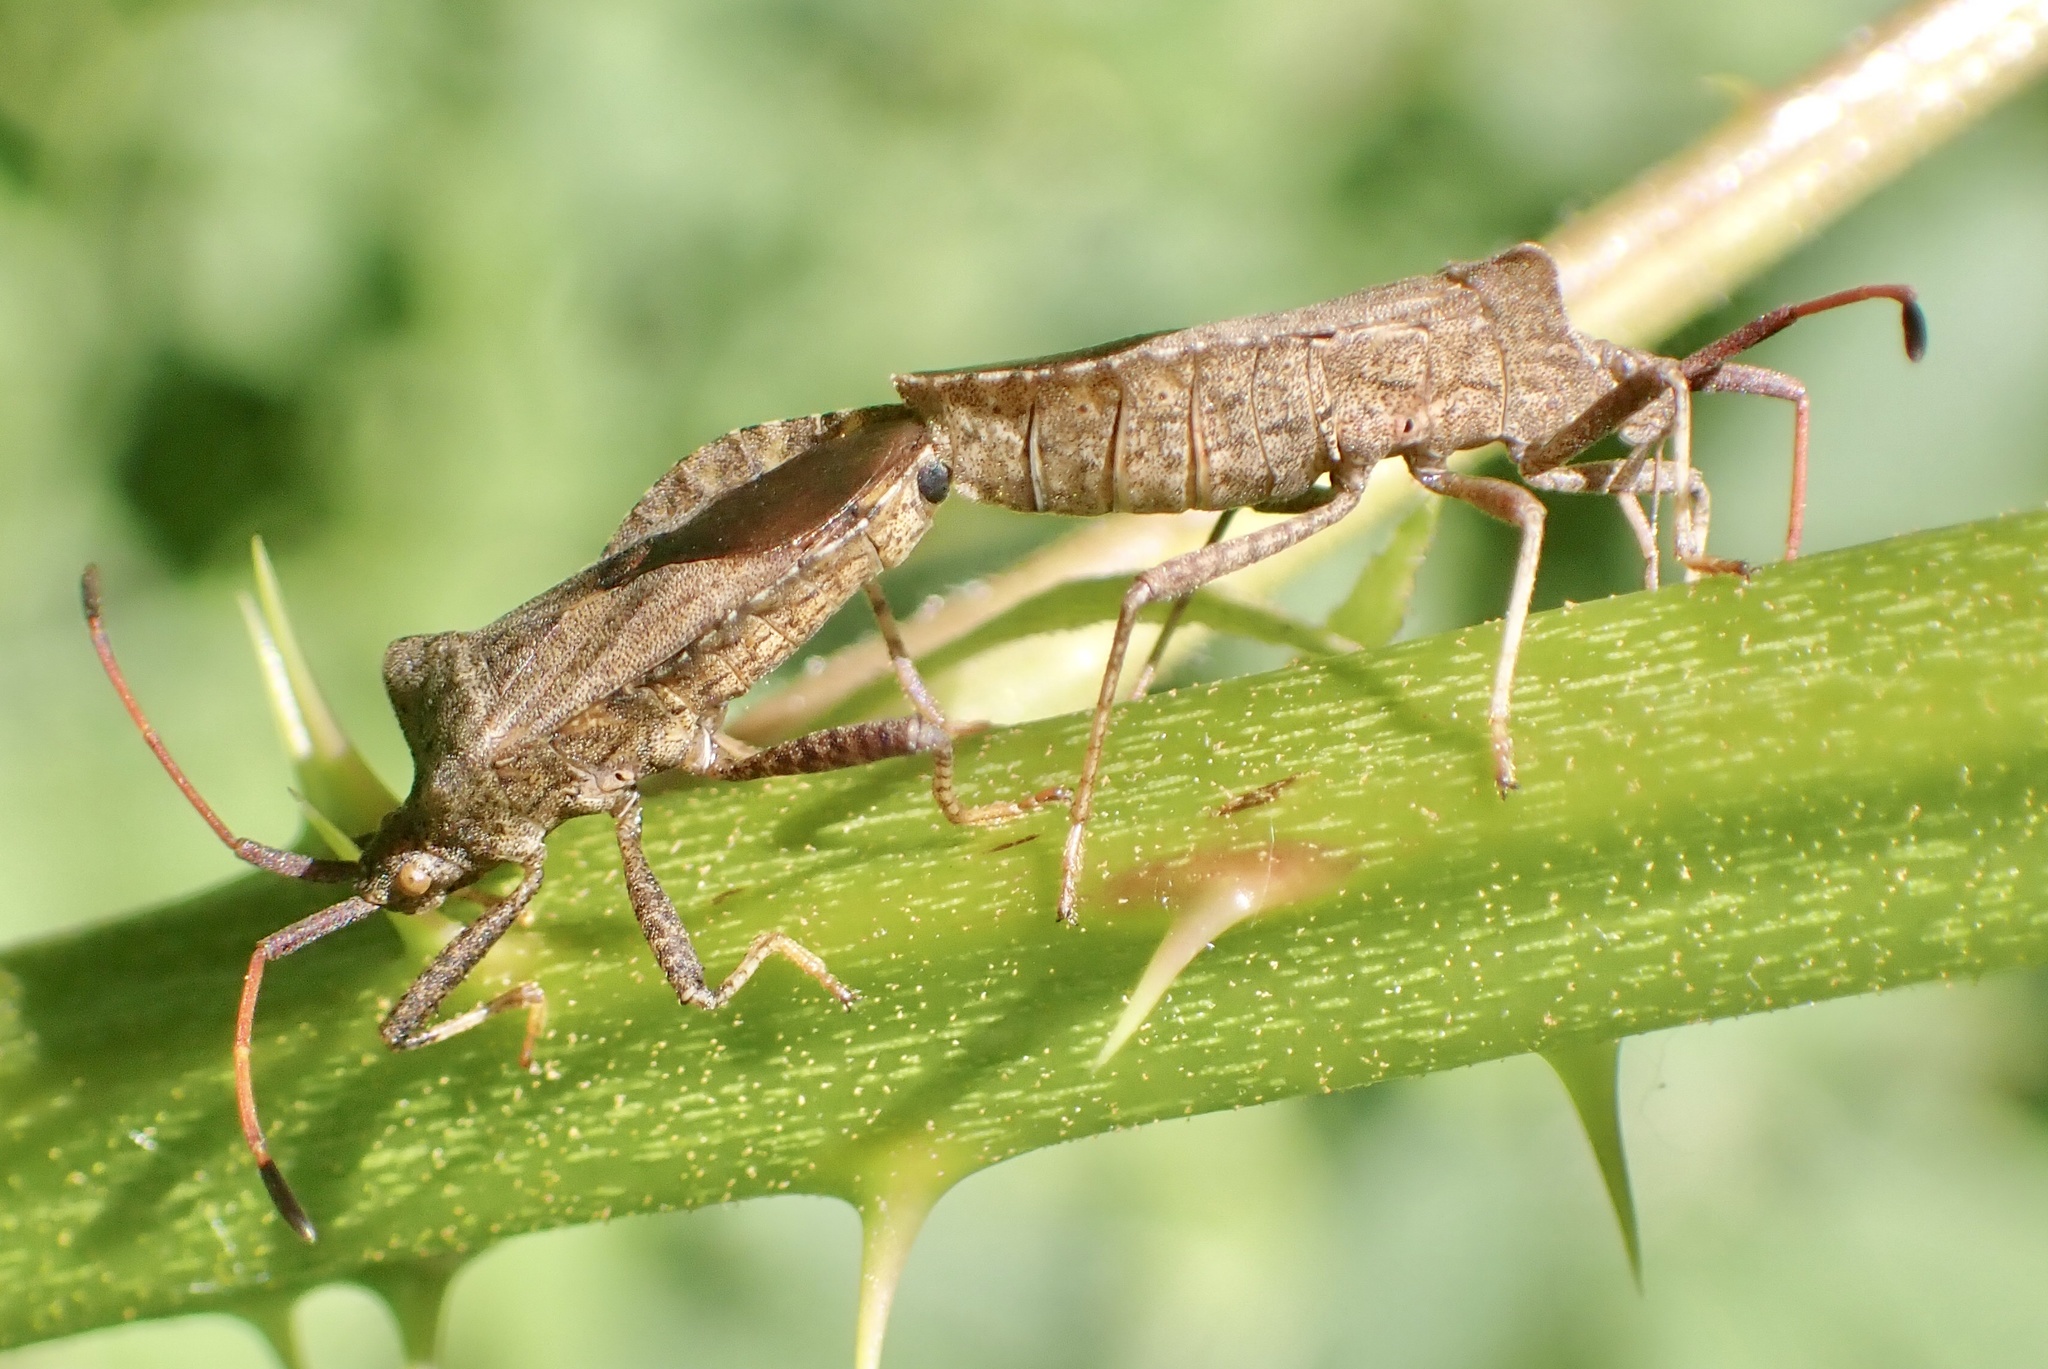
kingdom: Animalia
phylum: Arthropoda
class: Insecta
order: Hemiptera
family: Coreidae
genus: Coreus
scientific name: Coreus marginatus
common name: Dock bug
